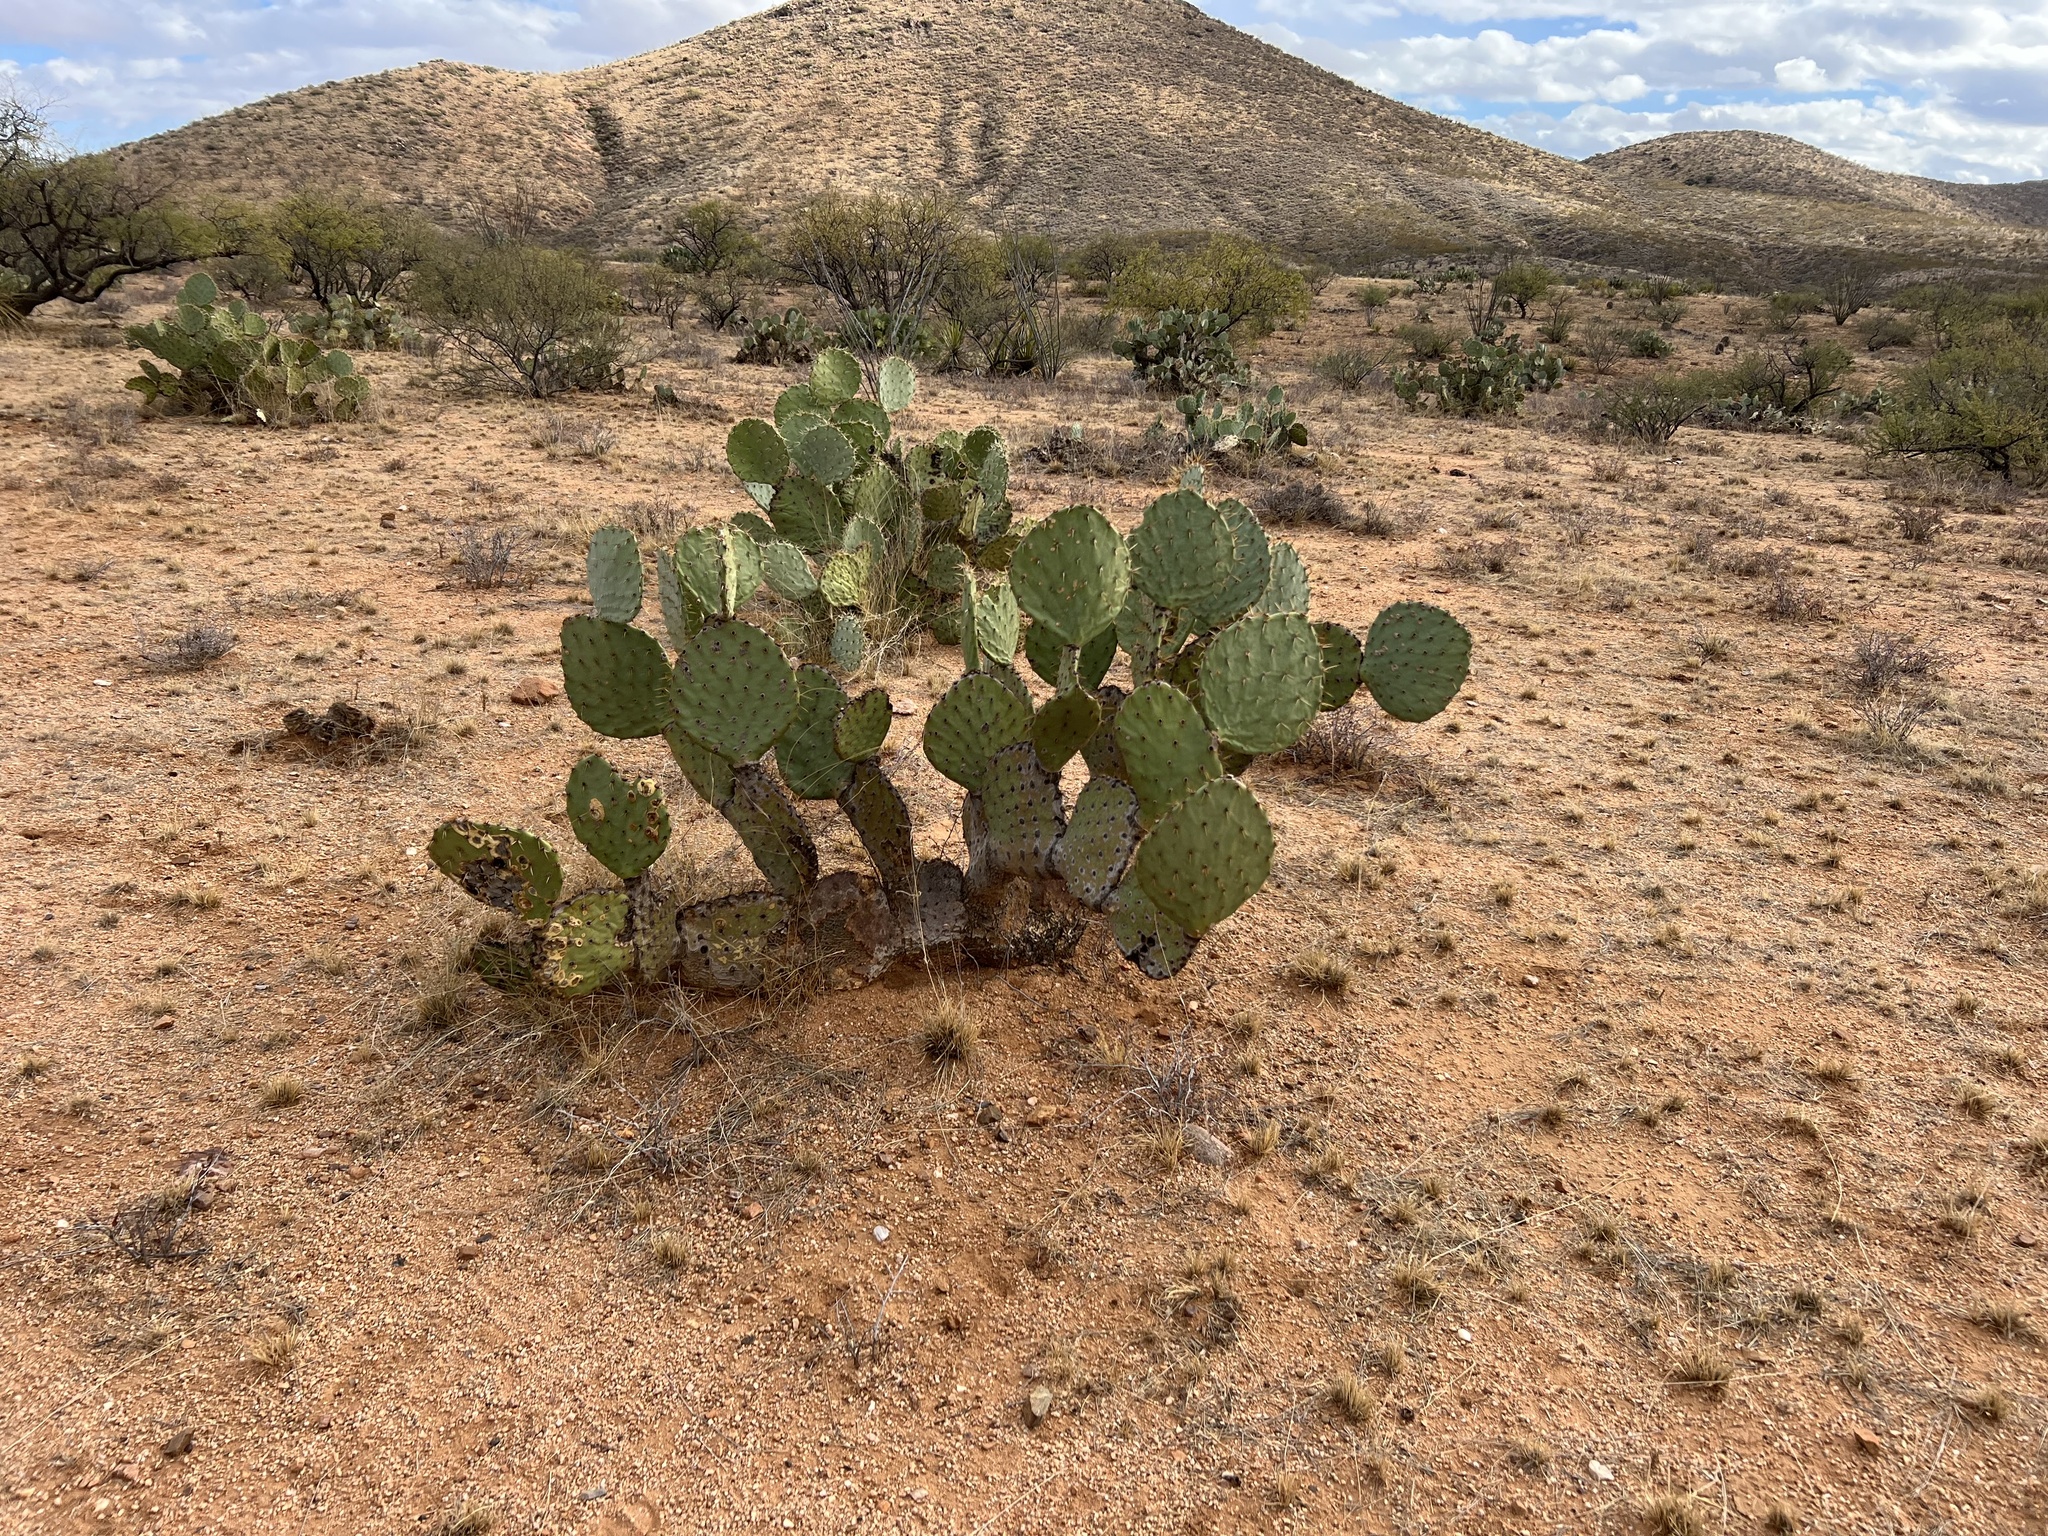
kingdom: Plantae
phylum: Tracheophyta
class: Magnoliopsida
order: Caryophyllales
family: Cactaceae
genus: Opuntia
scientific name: Opuntia engelmannii
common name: Cactus-apple
